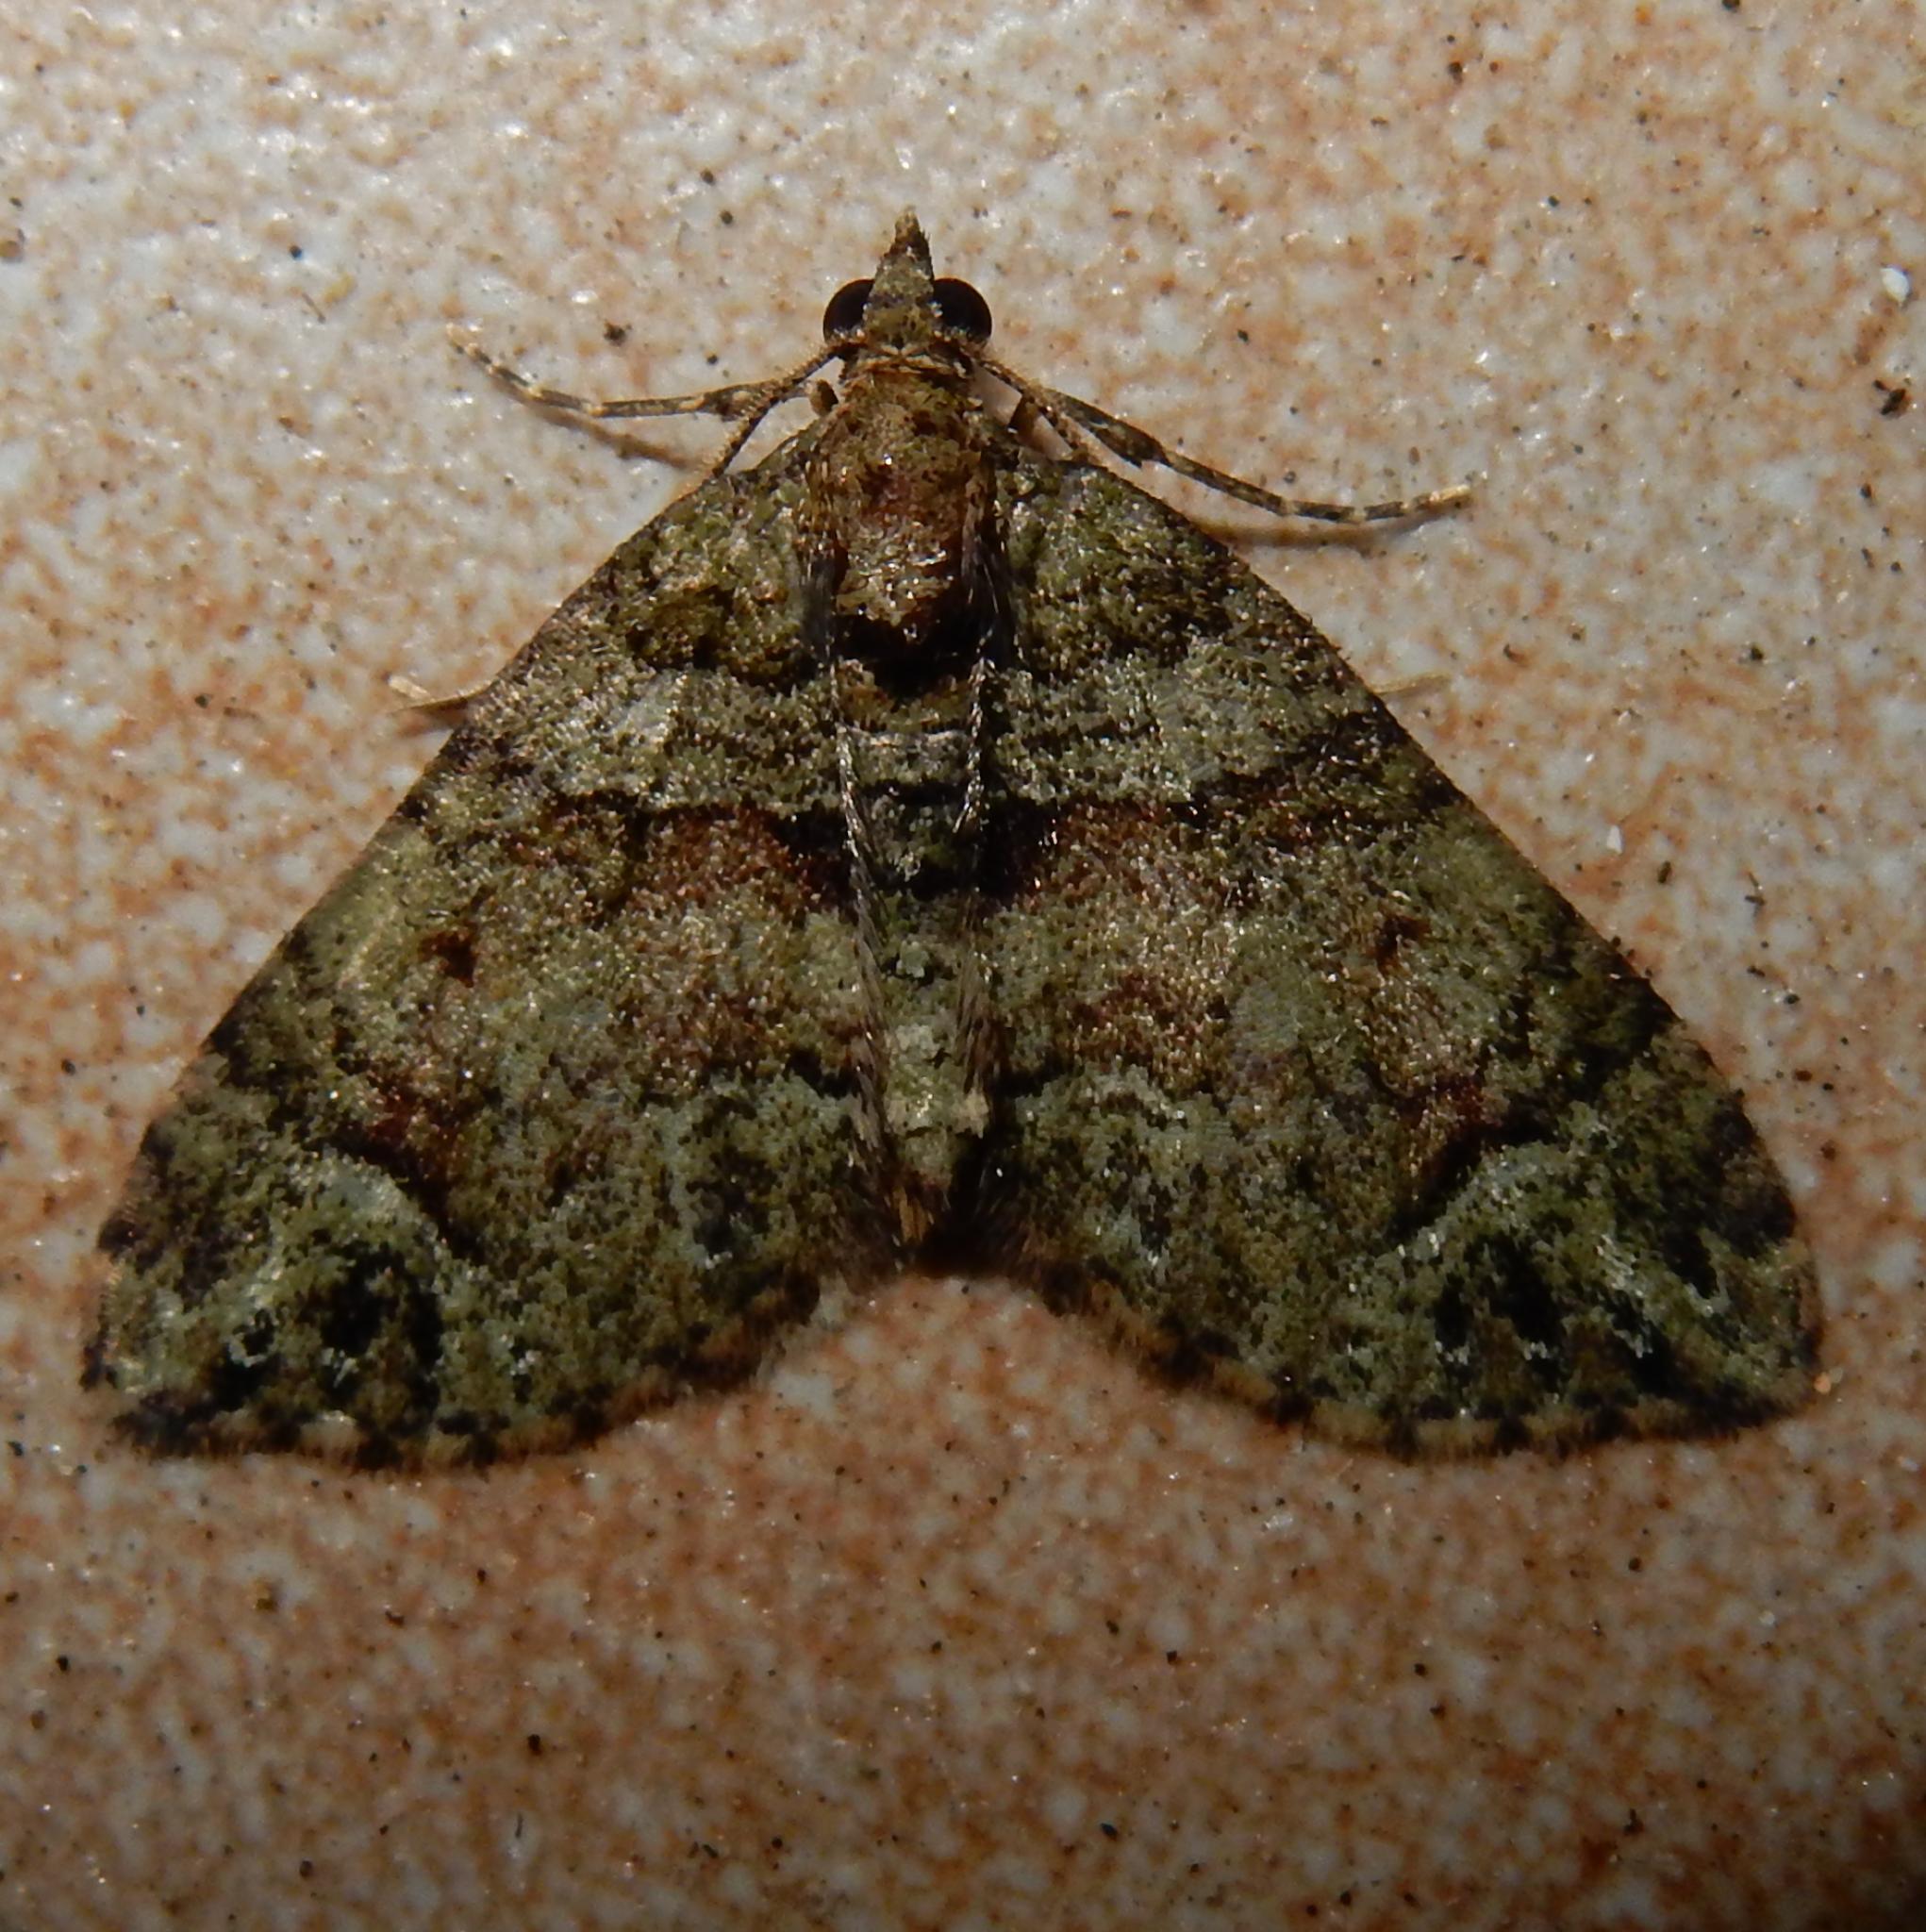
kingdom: Animalia
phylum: Arthropoda
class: Insecta
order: Lepidoptera
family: Geometridae
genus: Piercia
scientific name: Piercia prasinaria
